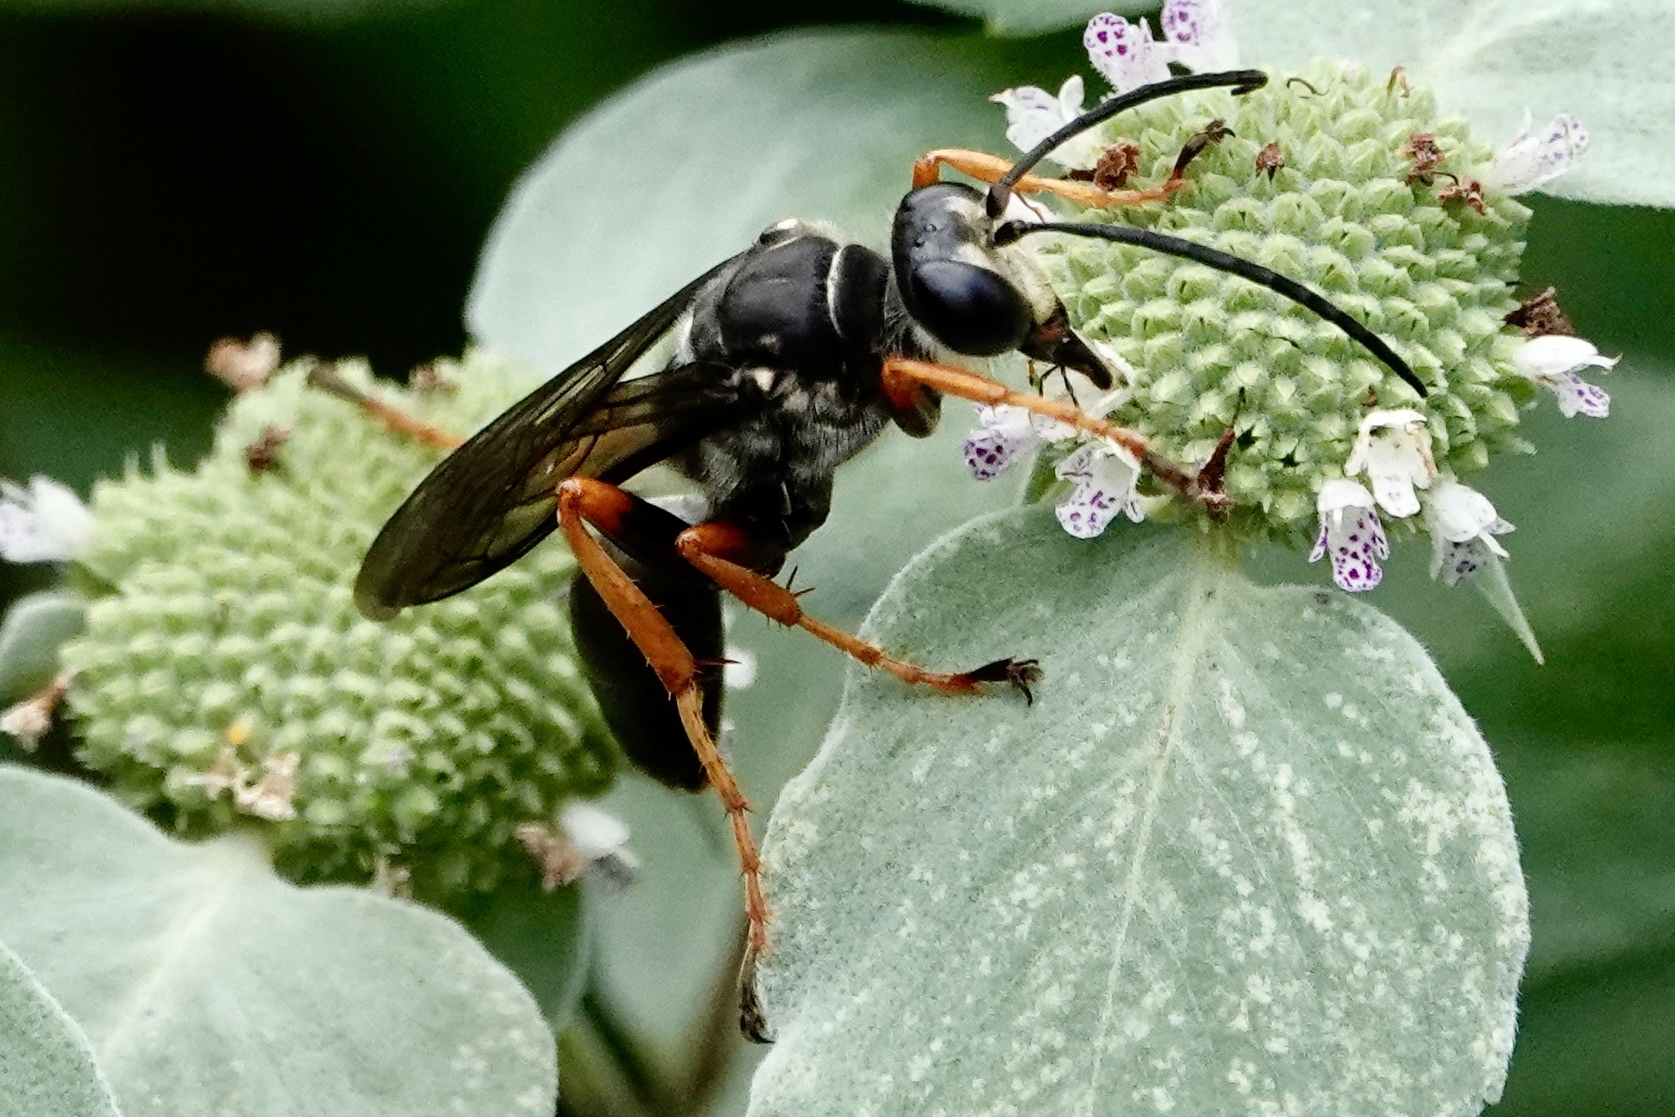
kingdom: Animalia
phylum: Arthropoda
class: Insecta
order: Hymenoptera
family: Sphecidae
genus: Sphex
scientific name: Sphex nudus
